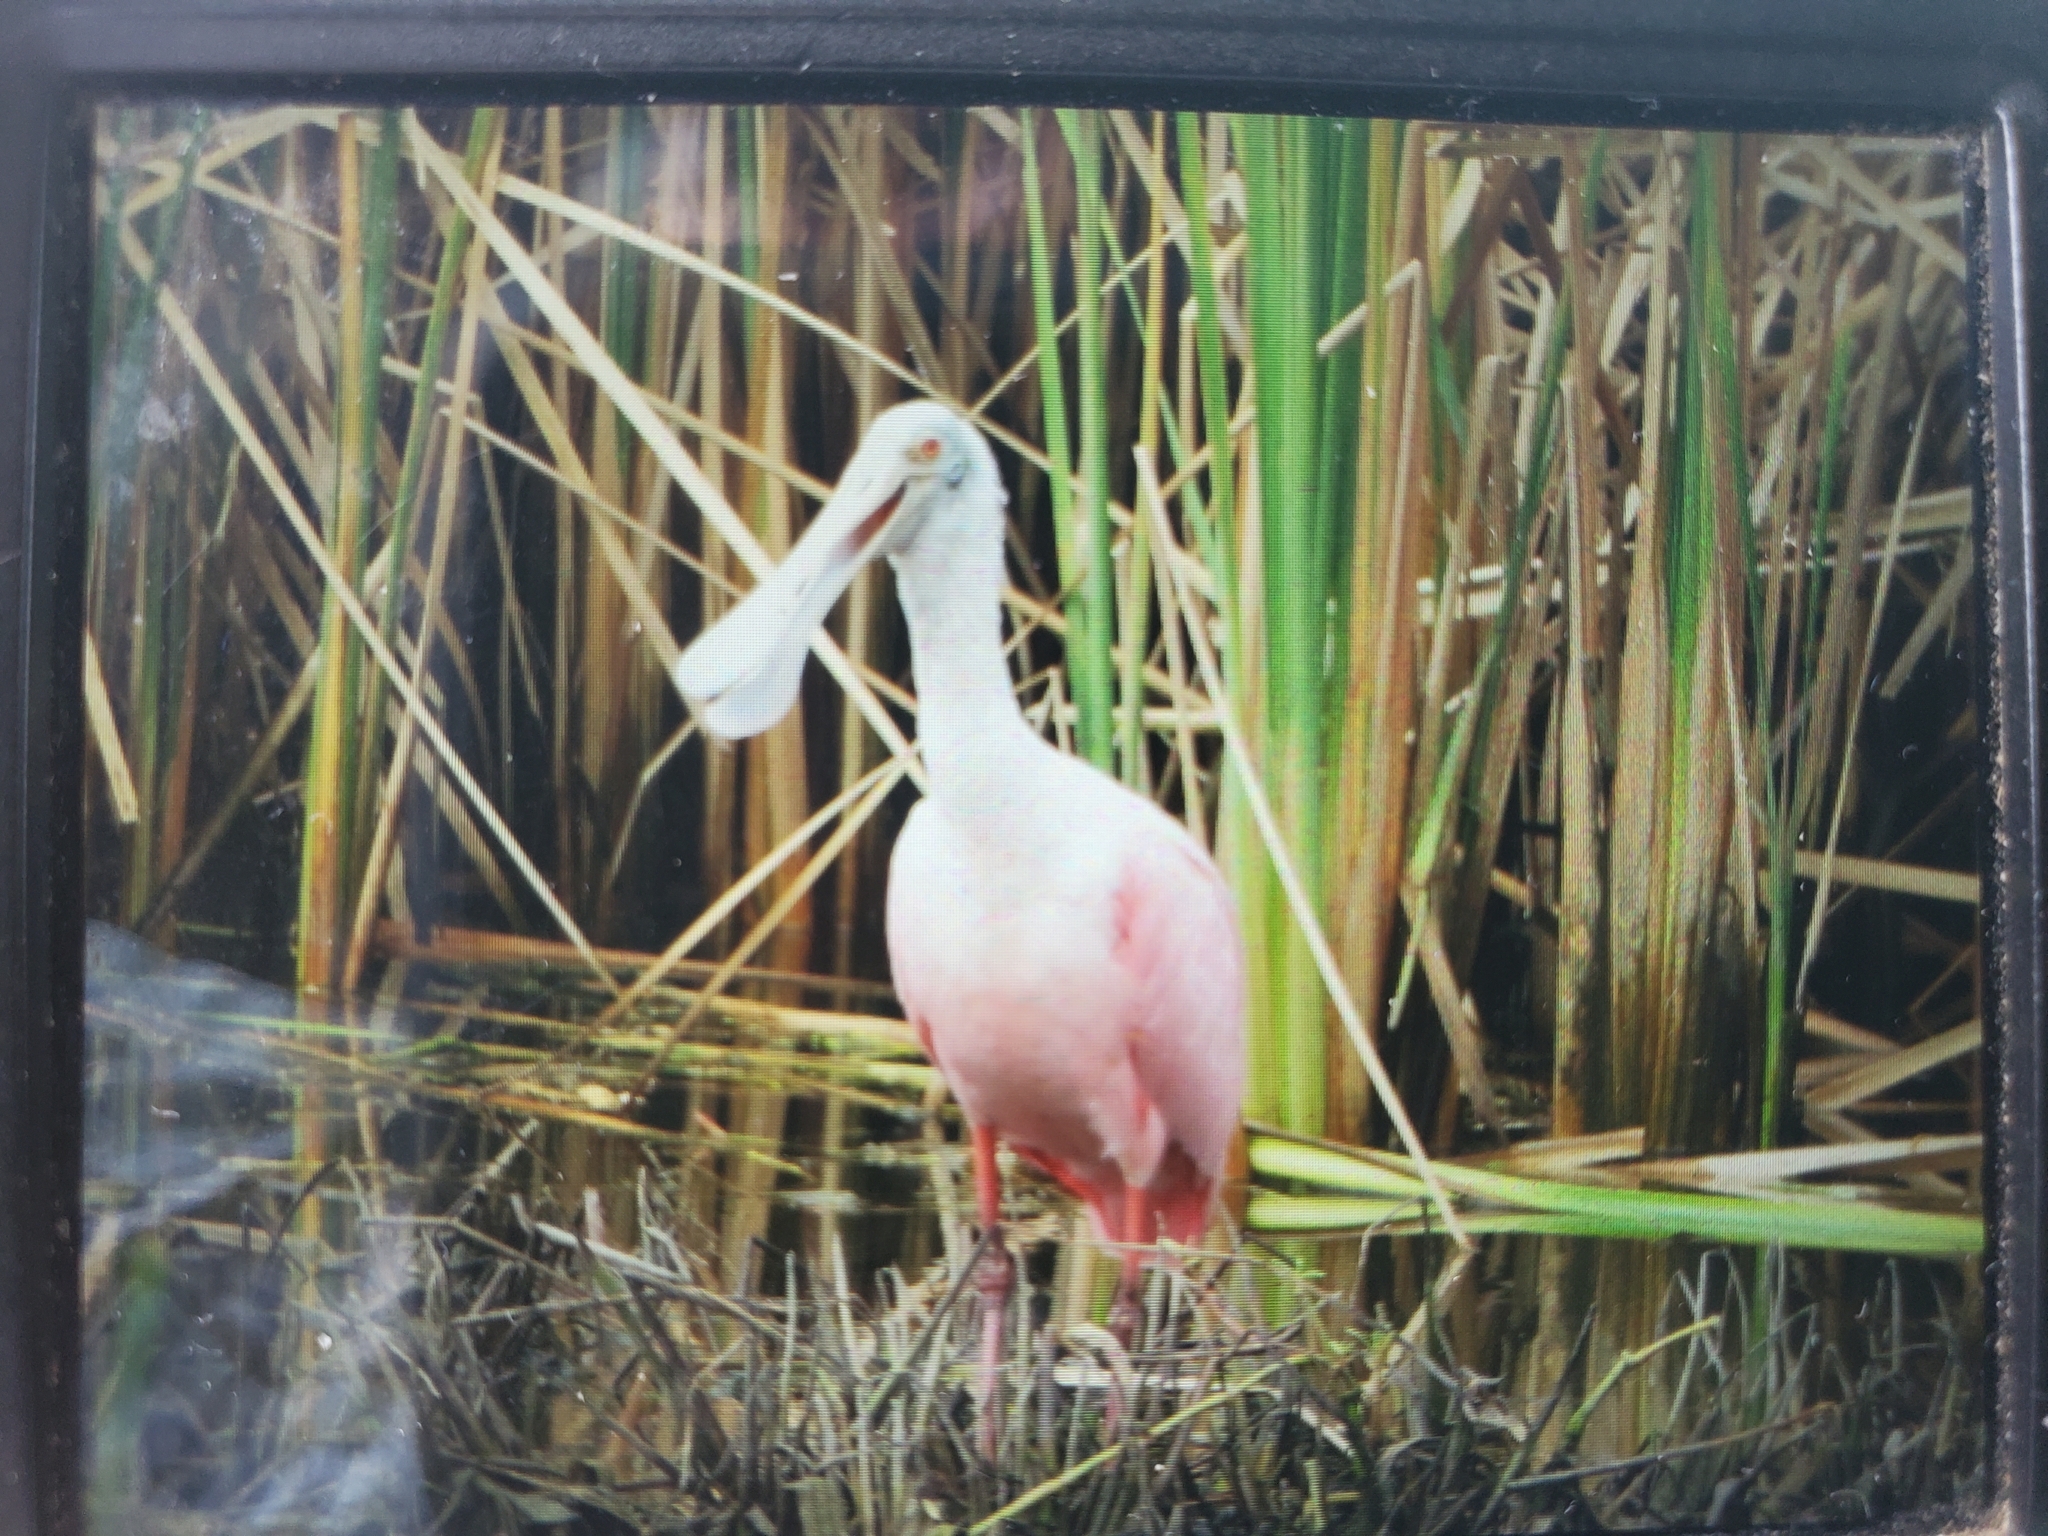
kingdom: Animalia
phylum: Chordata
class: Aves
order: Pelecaniformes
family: Threskiornithidae
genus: Platalea
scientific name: Platalea ajaja
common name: Roseate spoonbill
